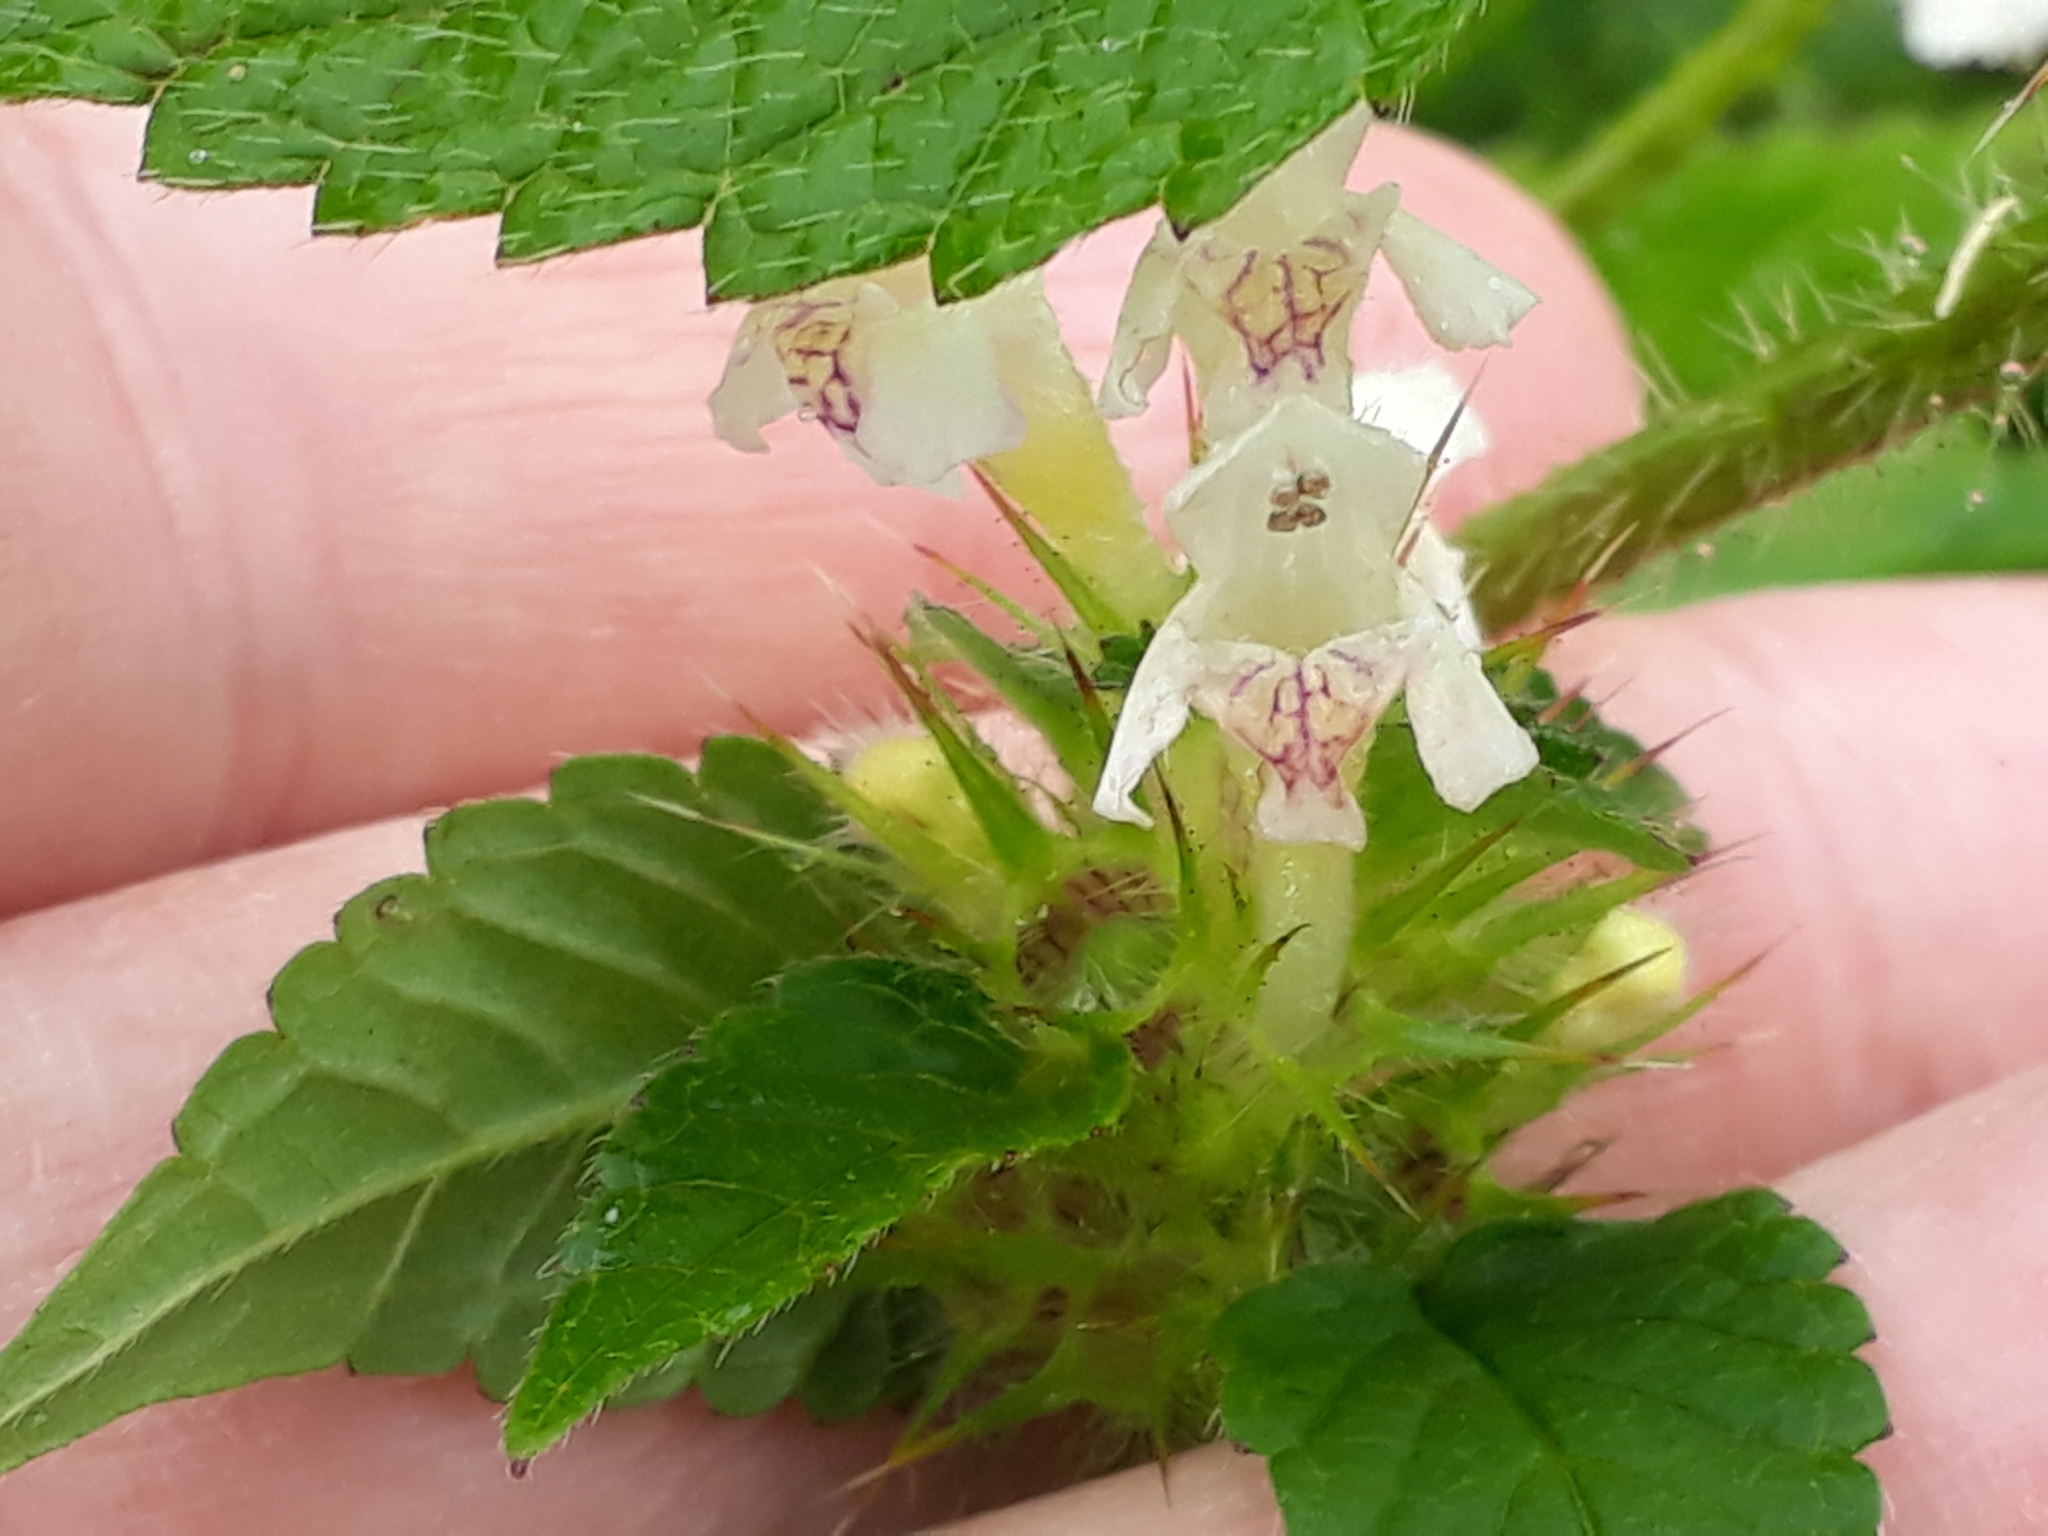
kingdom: Plantae
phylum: Tracheophyta
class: Magnoliopsida
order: Lamiales
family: Lamiaceae
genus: Galeopsis
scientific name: Galeopsis tetrahit
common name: Common hemp-nettle
